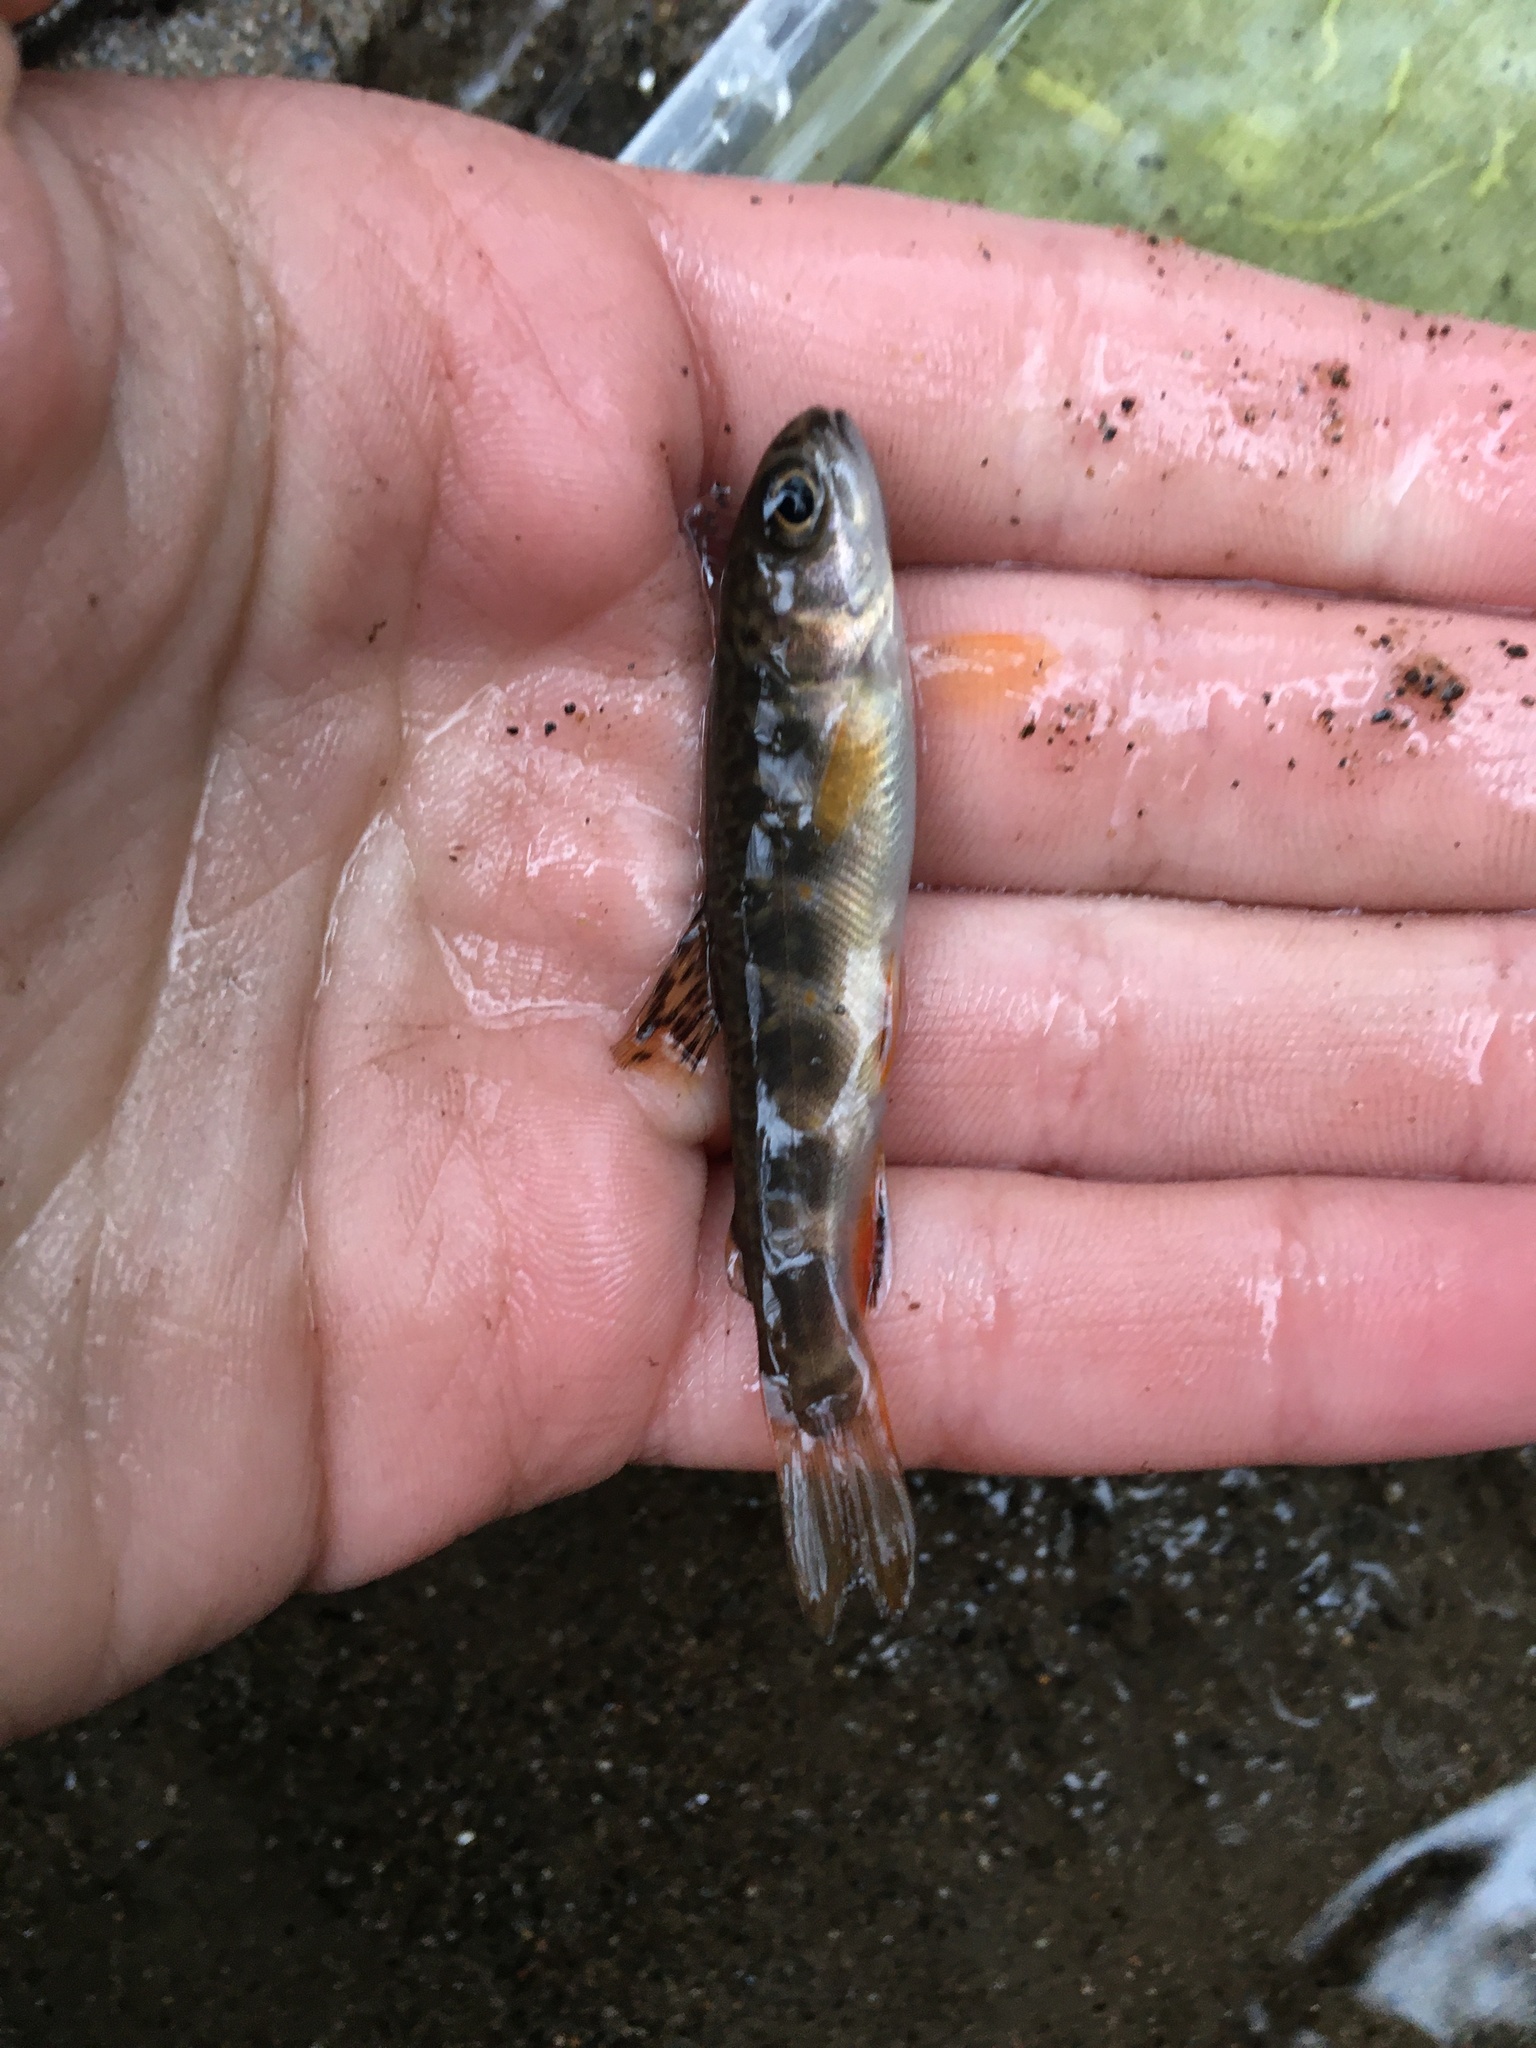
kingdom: Animalia
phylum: Chordata
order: Salmoniformes
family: Salmonidae
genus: Salvelinus
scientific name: Salvelinus fontinalis
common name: Brook trout
